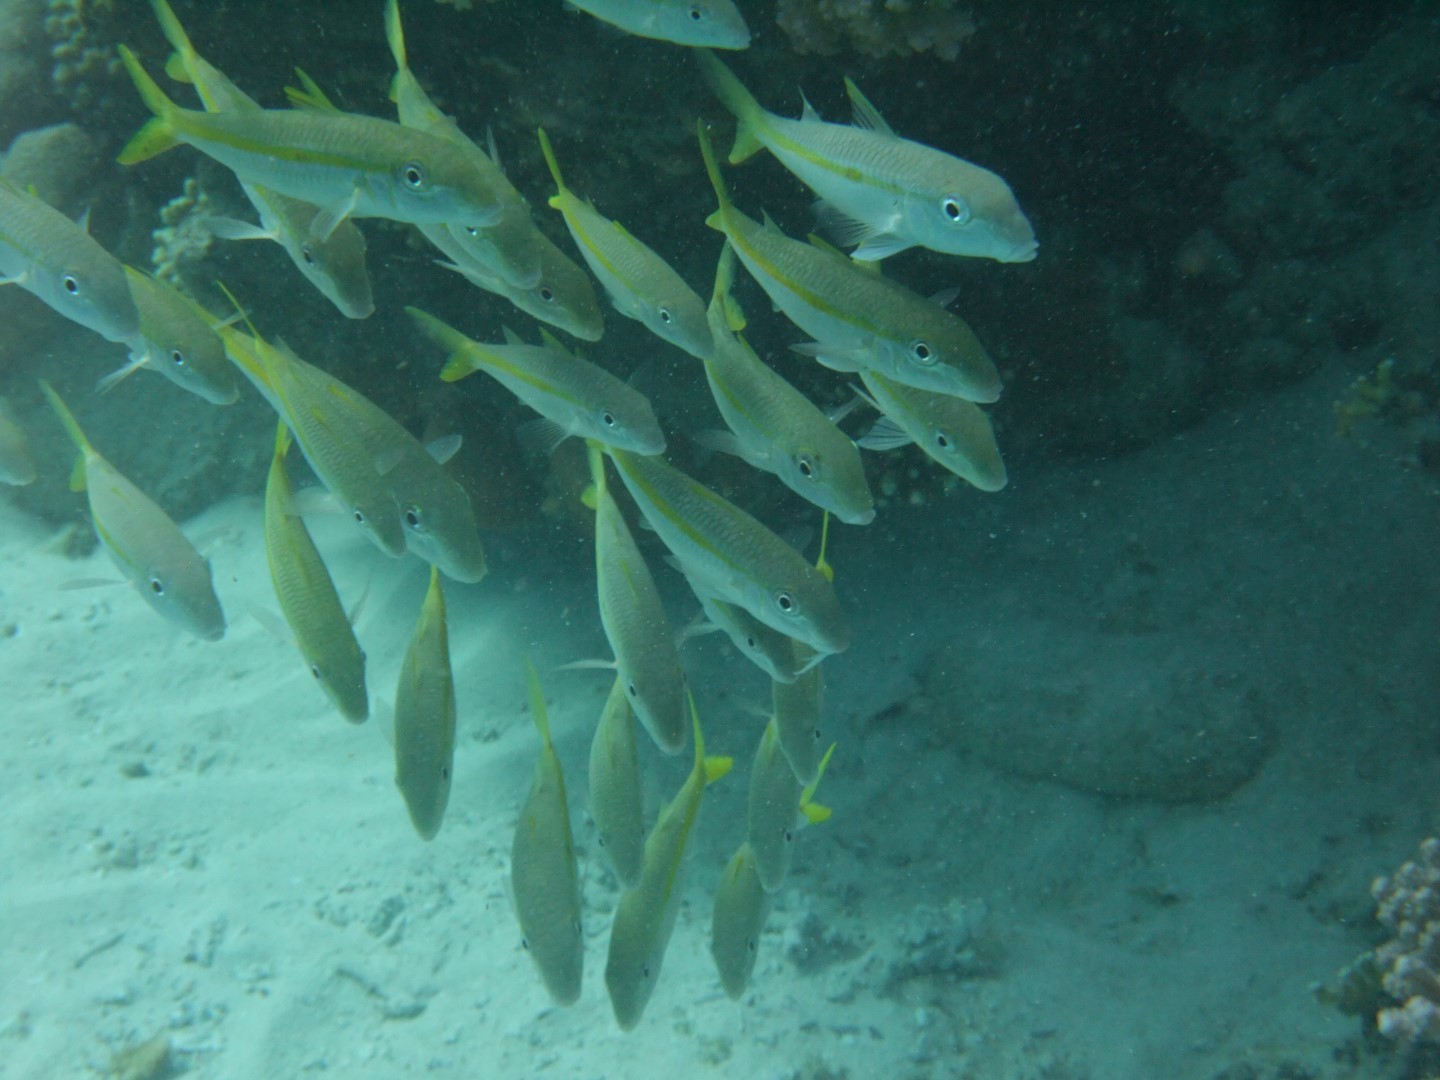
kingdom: Animalia
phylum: Chordata
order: Perciformes
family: Mullidae
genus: Mulloidichthys
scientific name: Mulloidichthys flavolineatus
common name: Yellowstripe goatfish
